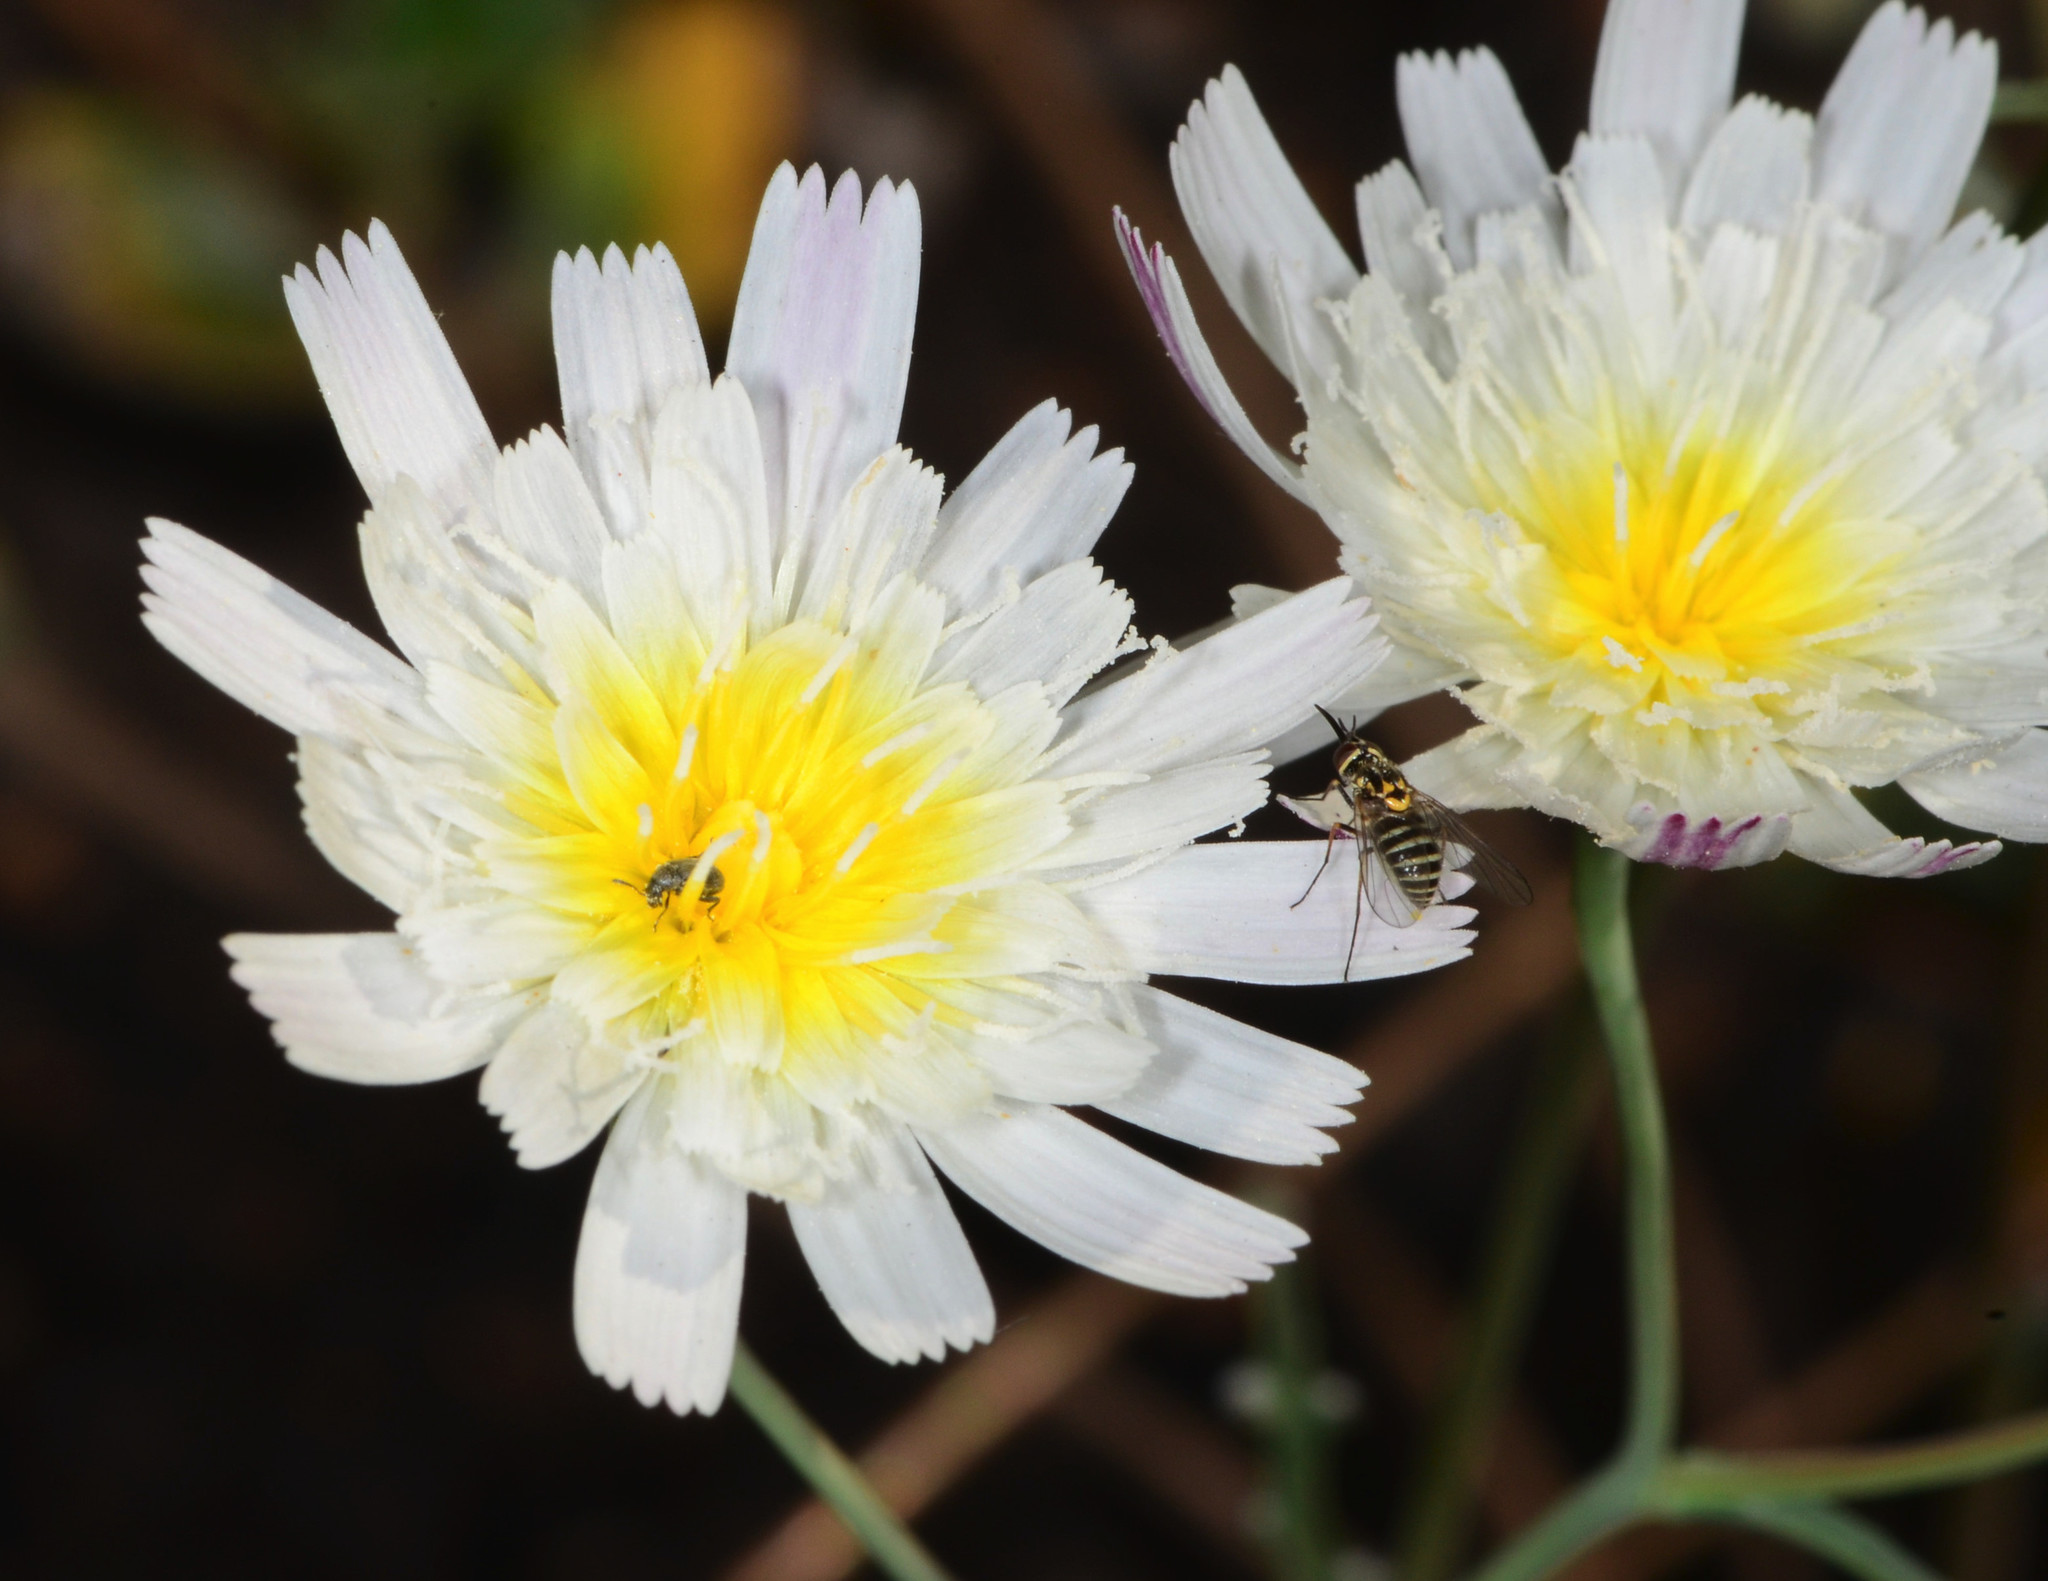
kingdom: Plantae
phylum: Tracheophyta
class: Magnoliopsida
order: Asterales
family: Asteraceae
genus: Malacothrix
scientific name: Malacothrix floccifera
